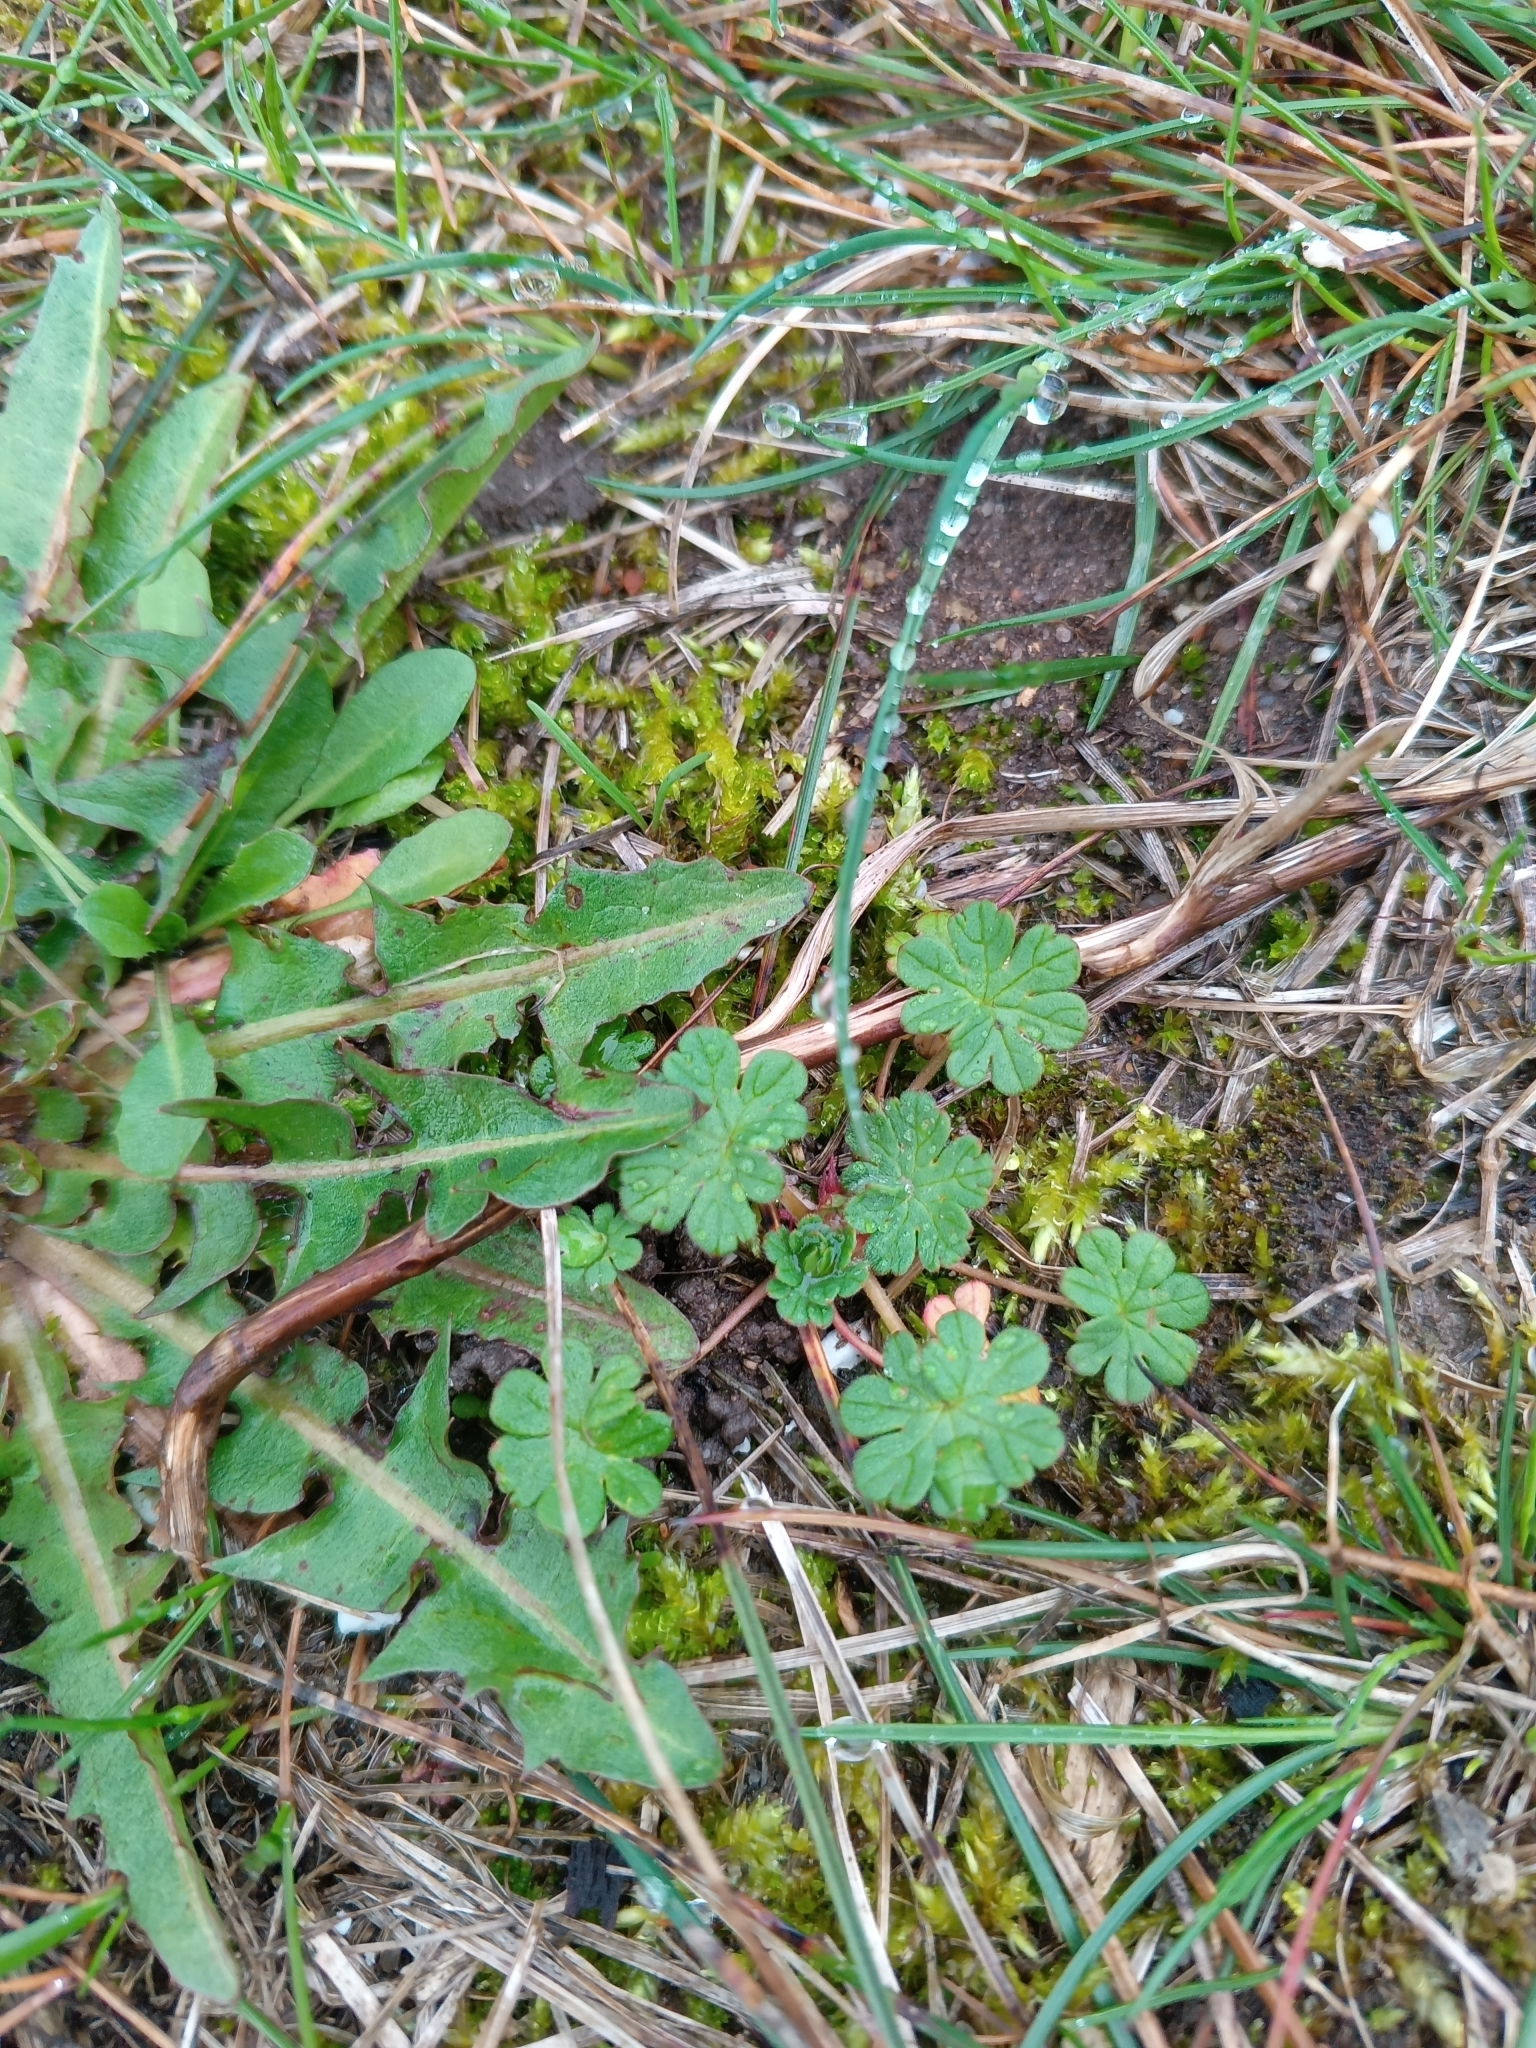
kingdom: Plantae
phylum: Tracheophyta
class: Magnoliopsida
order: Geraniales
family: Geraniaceae
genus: Geranium
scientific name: Geranium pusillum
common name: Small geranium
